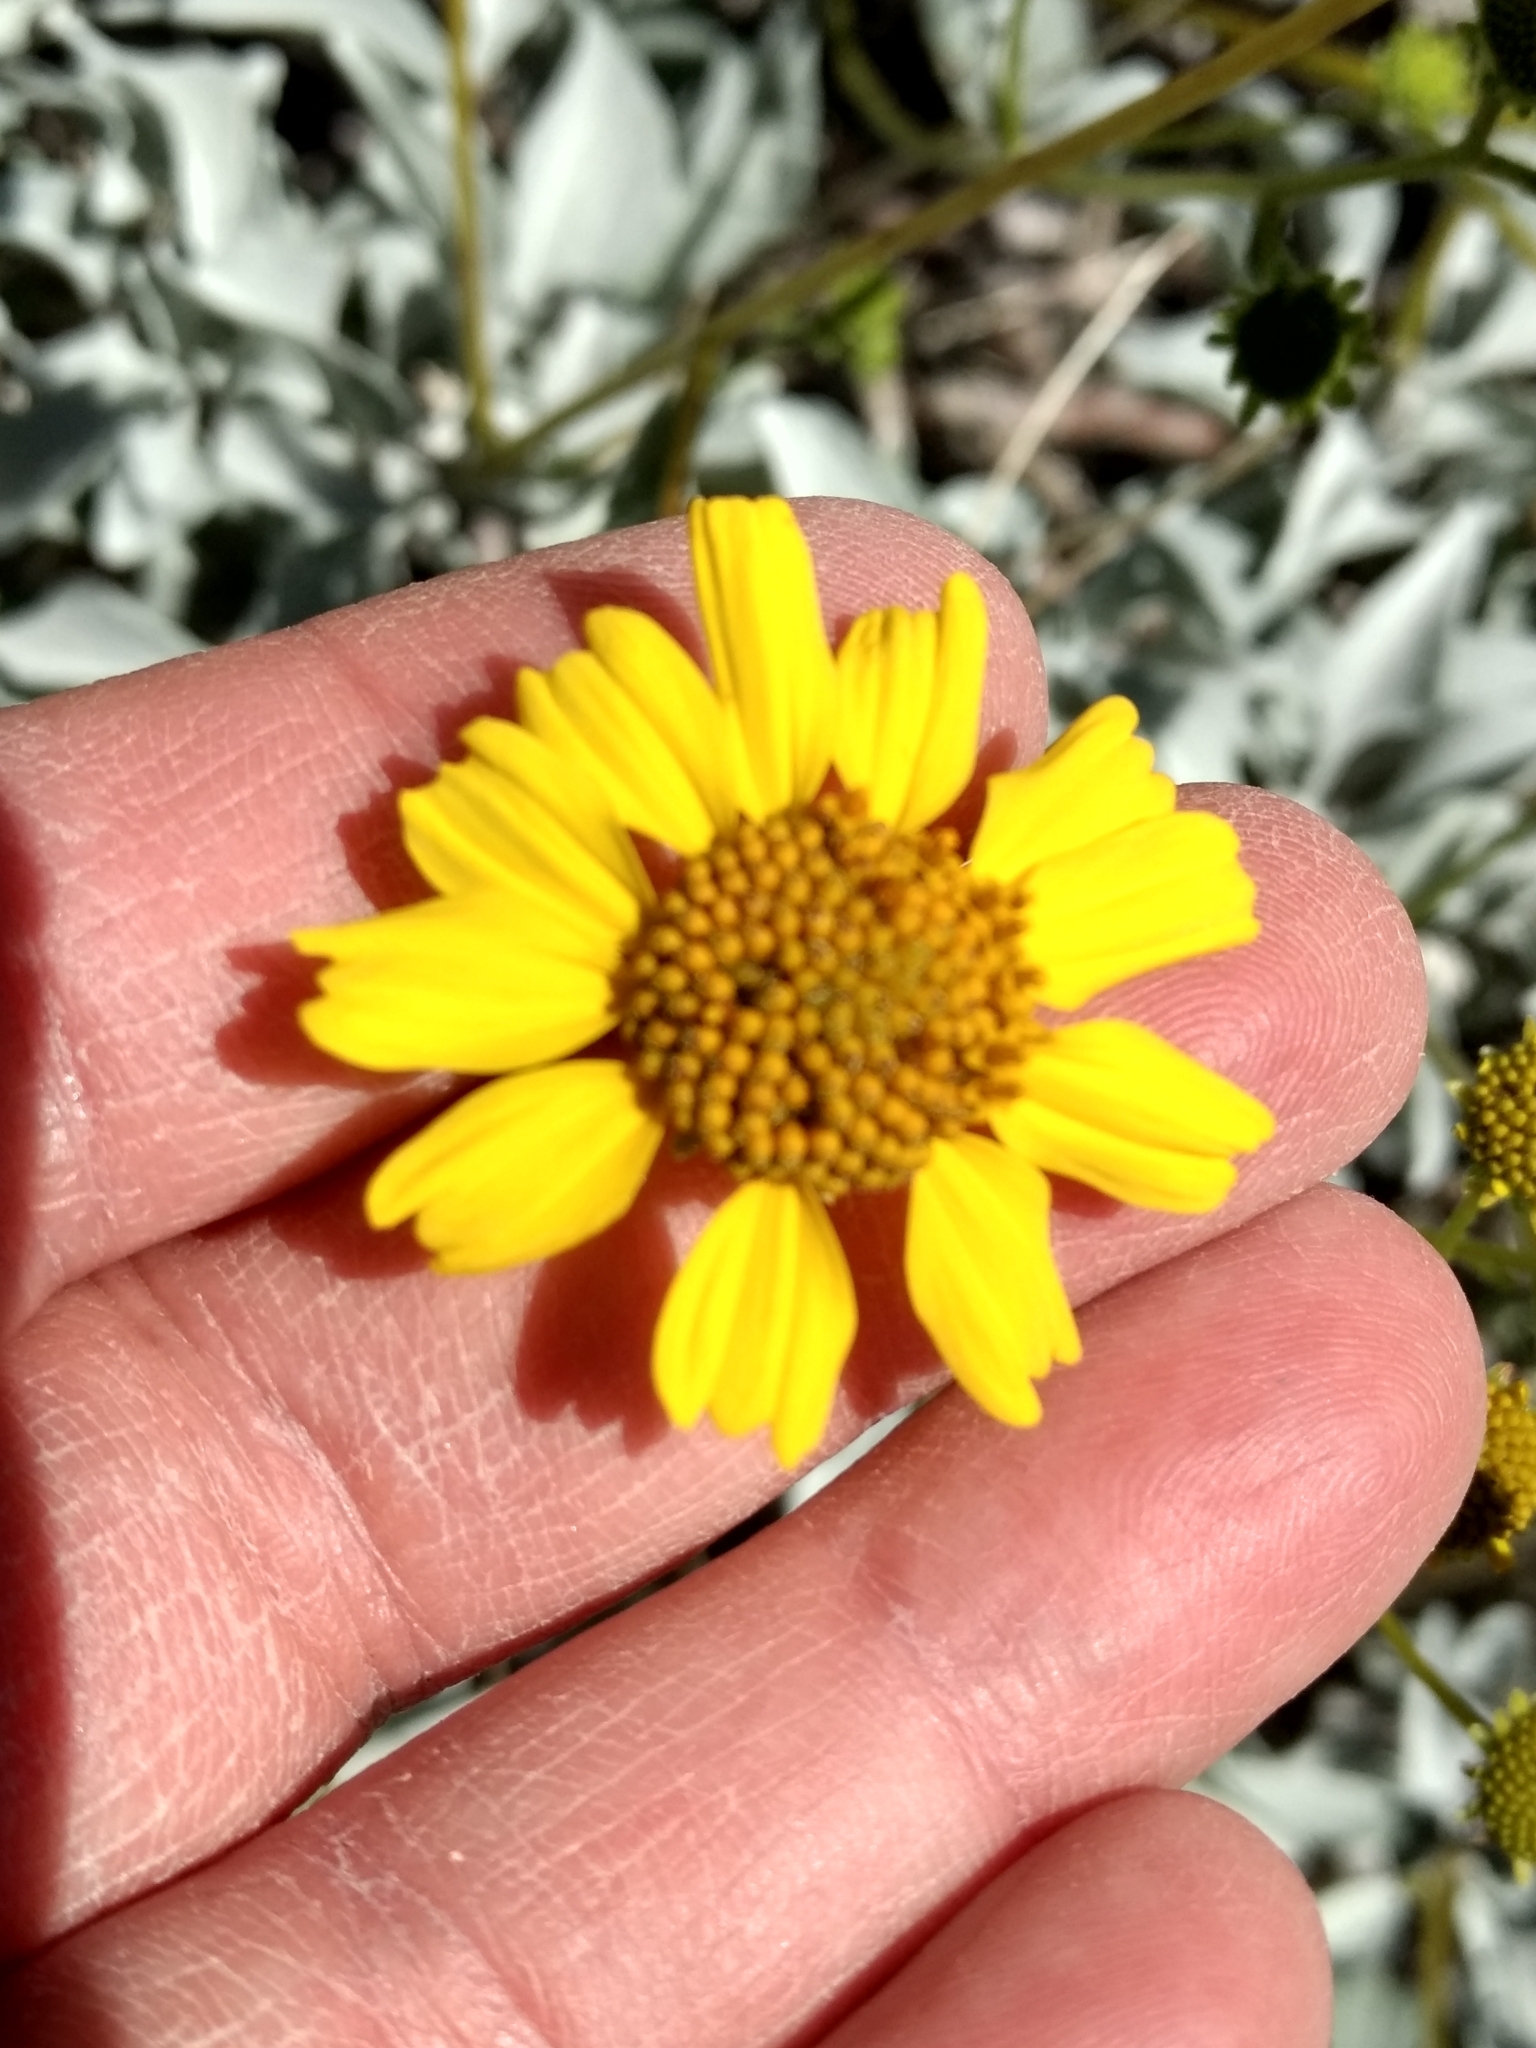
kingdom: Plantae
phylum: Tracheophyta
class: Magnoliopsida
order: Asterales
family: Asteraceae
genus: Encelia
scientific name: Encelia farinosa
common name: Brittlebush
